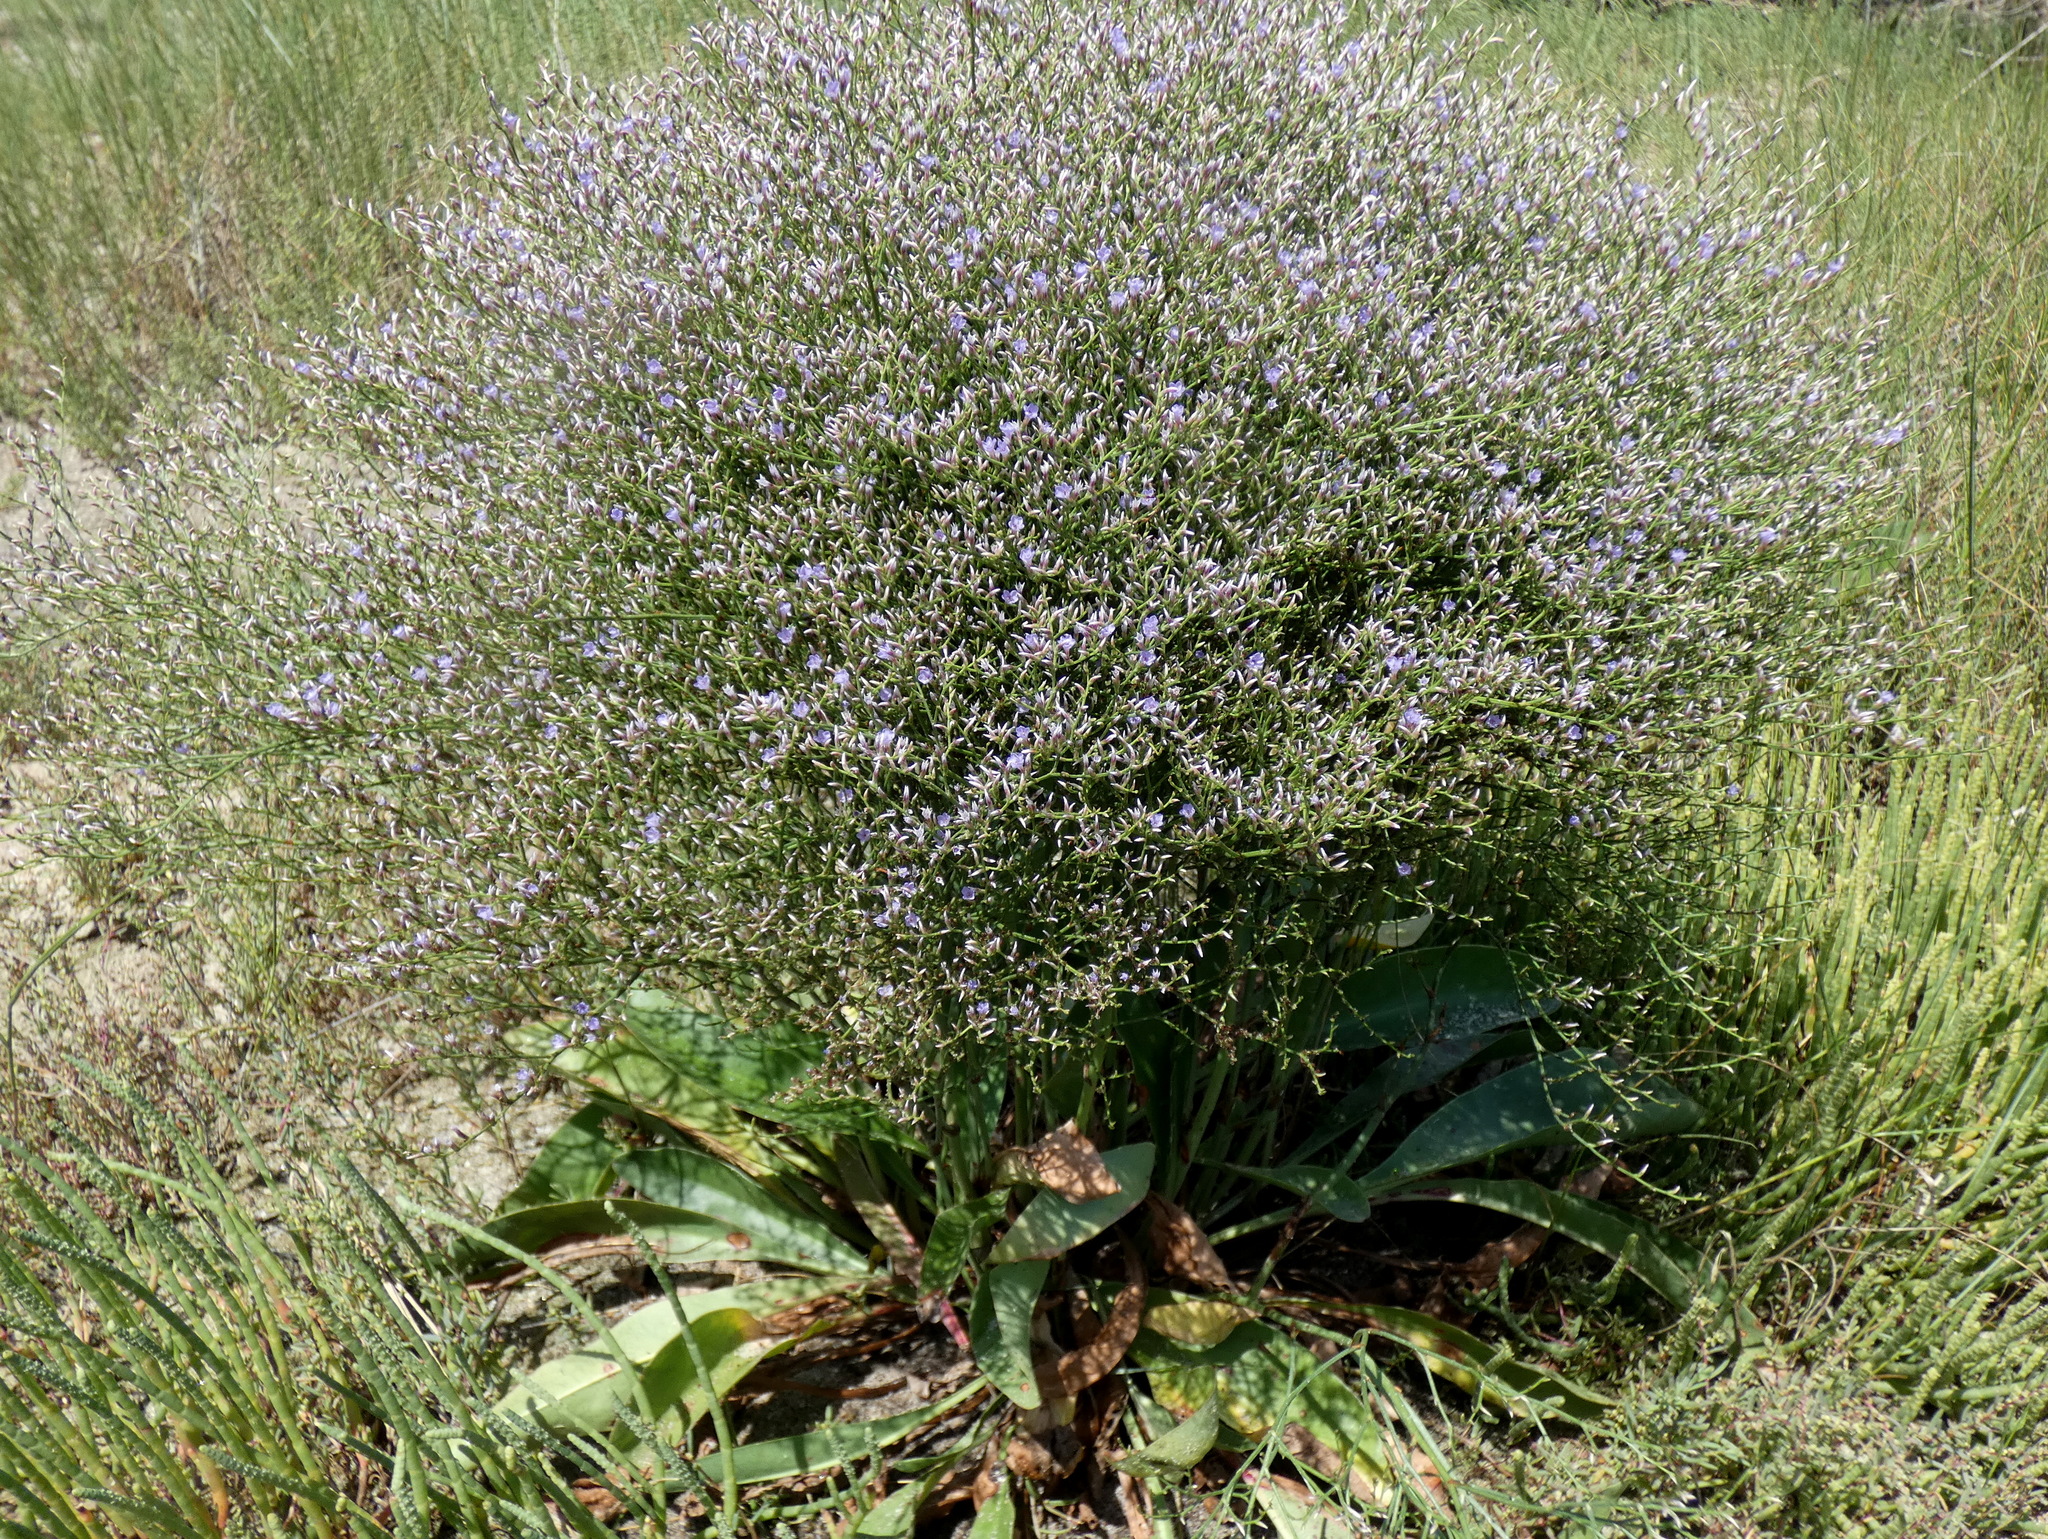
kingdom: Plantae
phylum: Tracheophyta
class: Magnoliopsida
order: Caryophyllales
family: Plumbaginaceae
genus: Limonium
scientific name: Limonium carolinianum
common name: Carolina sea lavender
